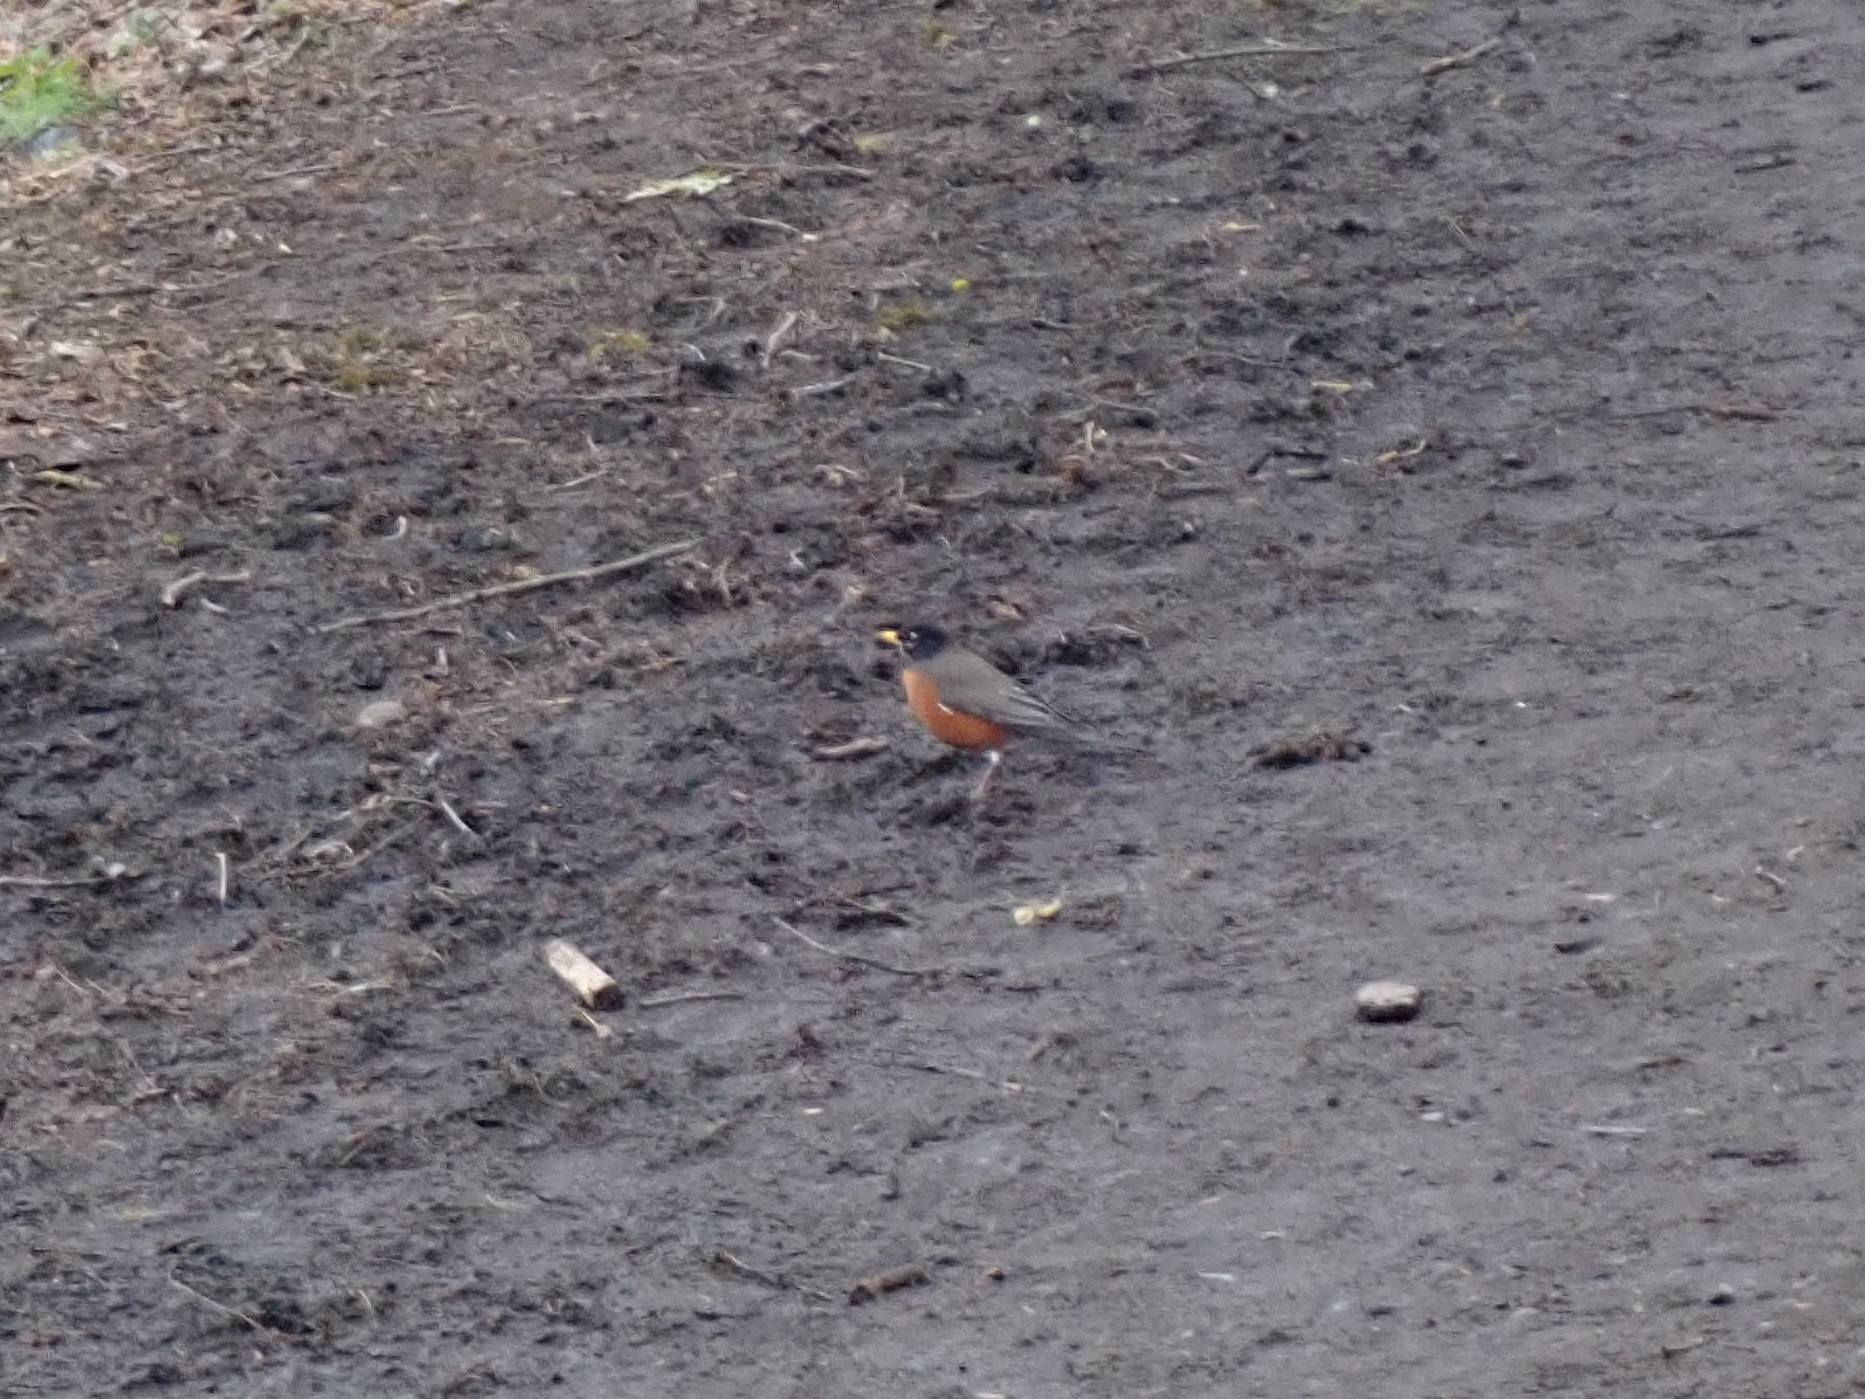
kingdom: Animalia
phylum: Chordata
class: Aves
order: Passeriformes
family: Turdidae
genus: Turdus
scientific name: Turdus migratorius
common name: American robin
